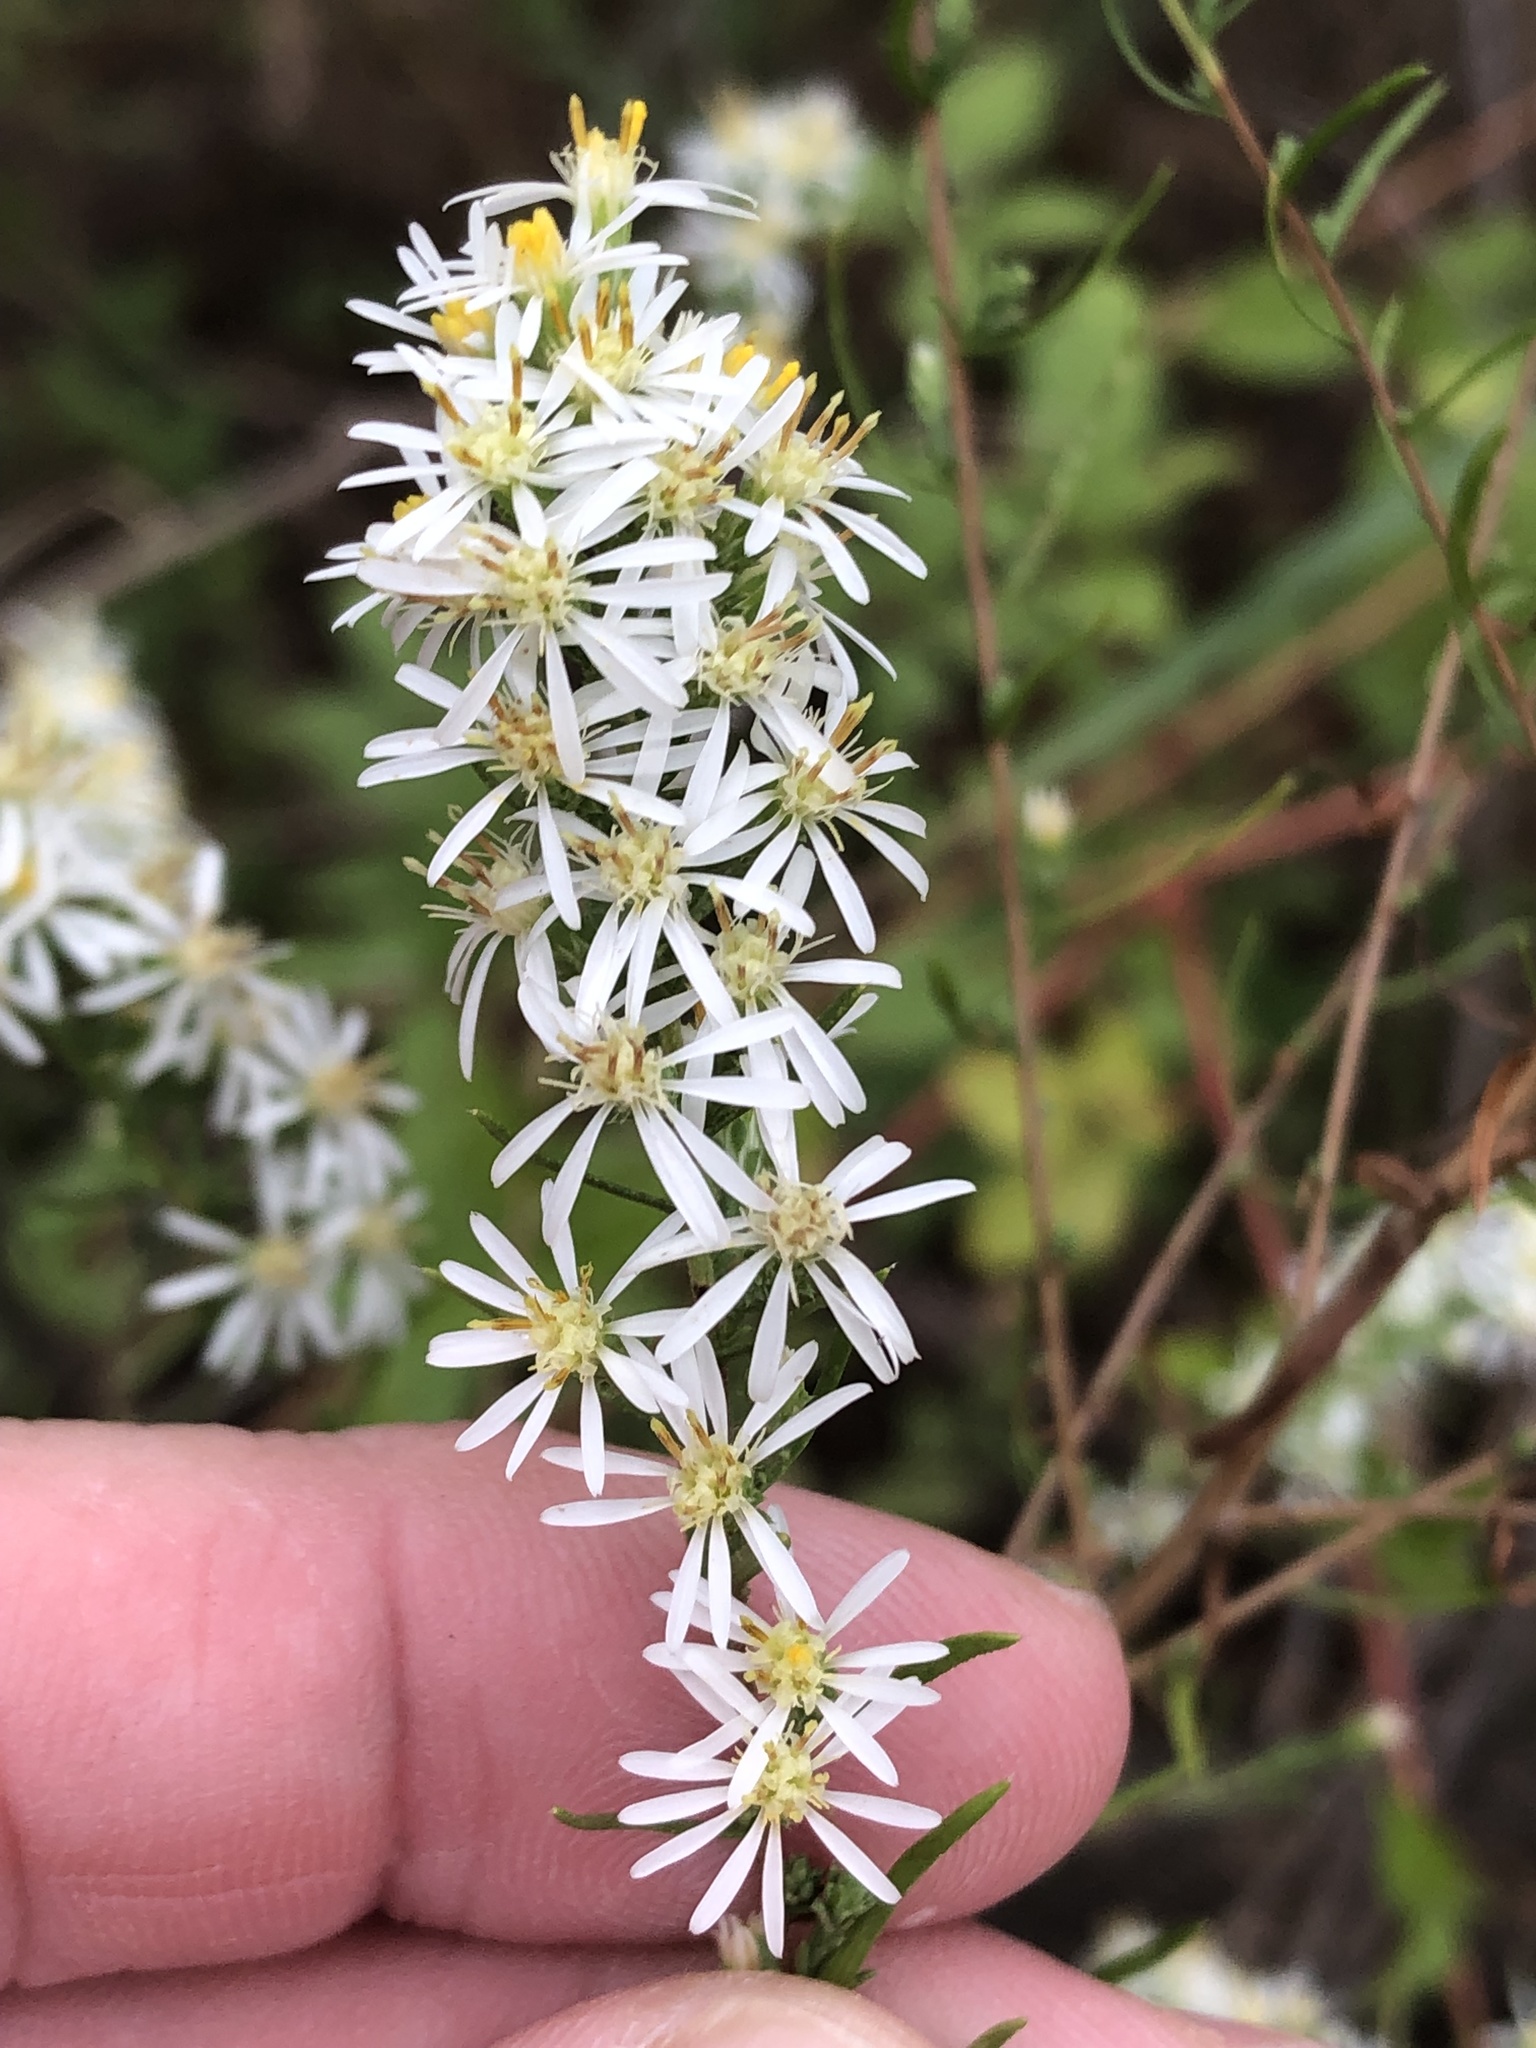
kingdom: Plantae
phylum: Tracheophyta
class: Magnoliopsida
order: Asterales
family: Asteraceae
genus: Symphyotrichum
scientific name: Symphyotrichum ericoides
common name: Heath aster
